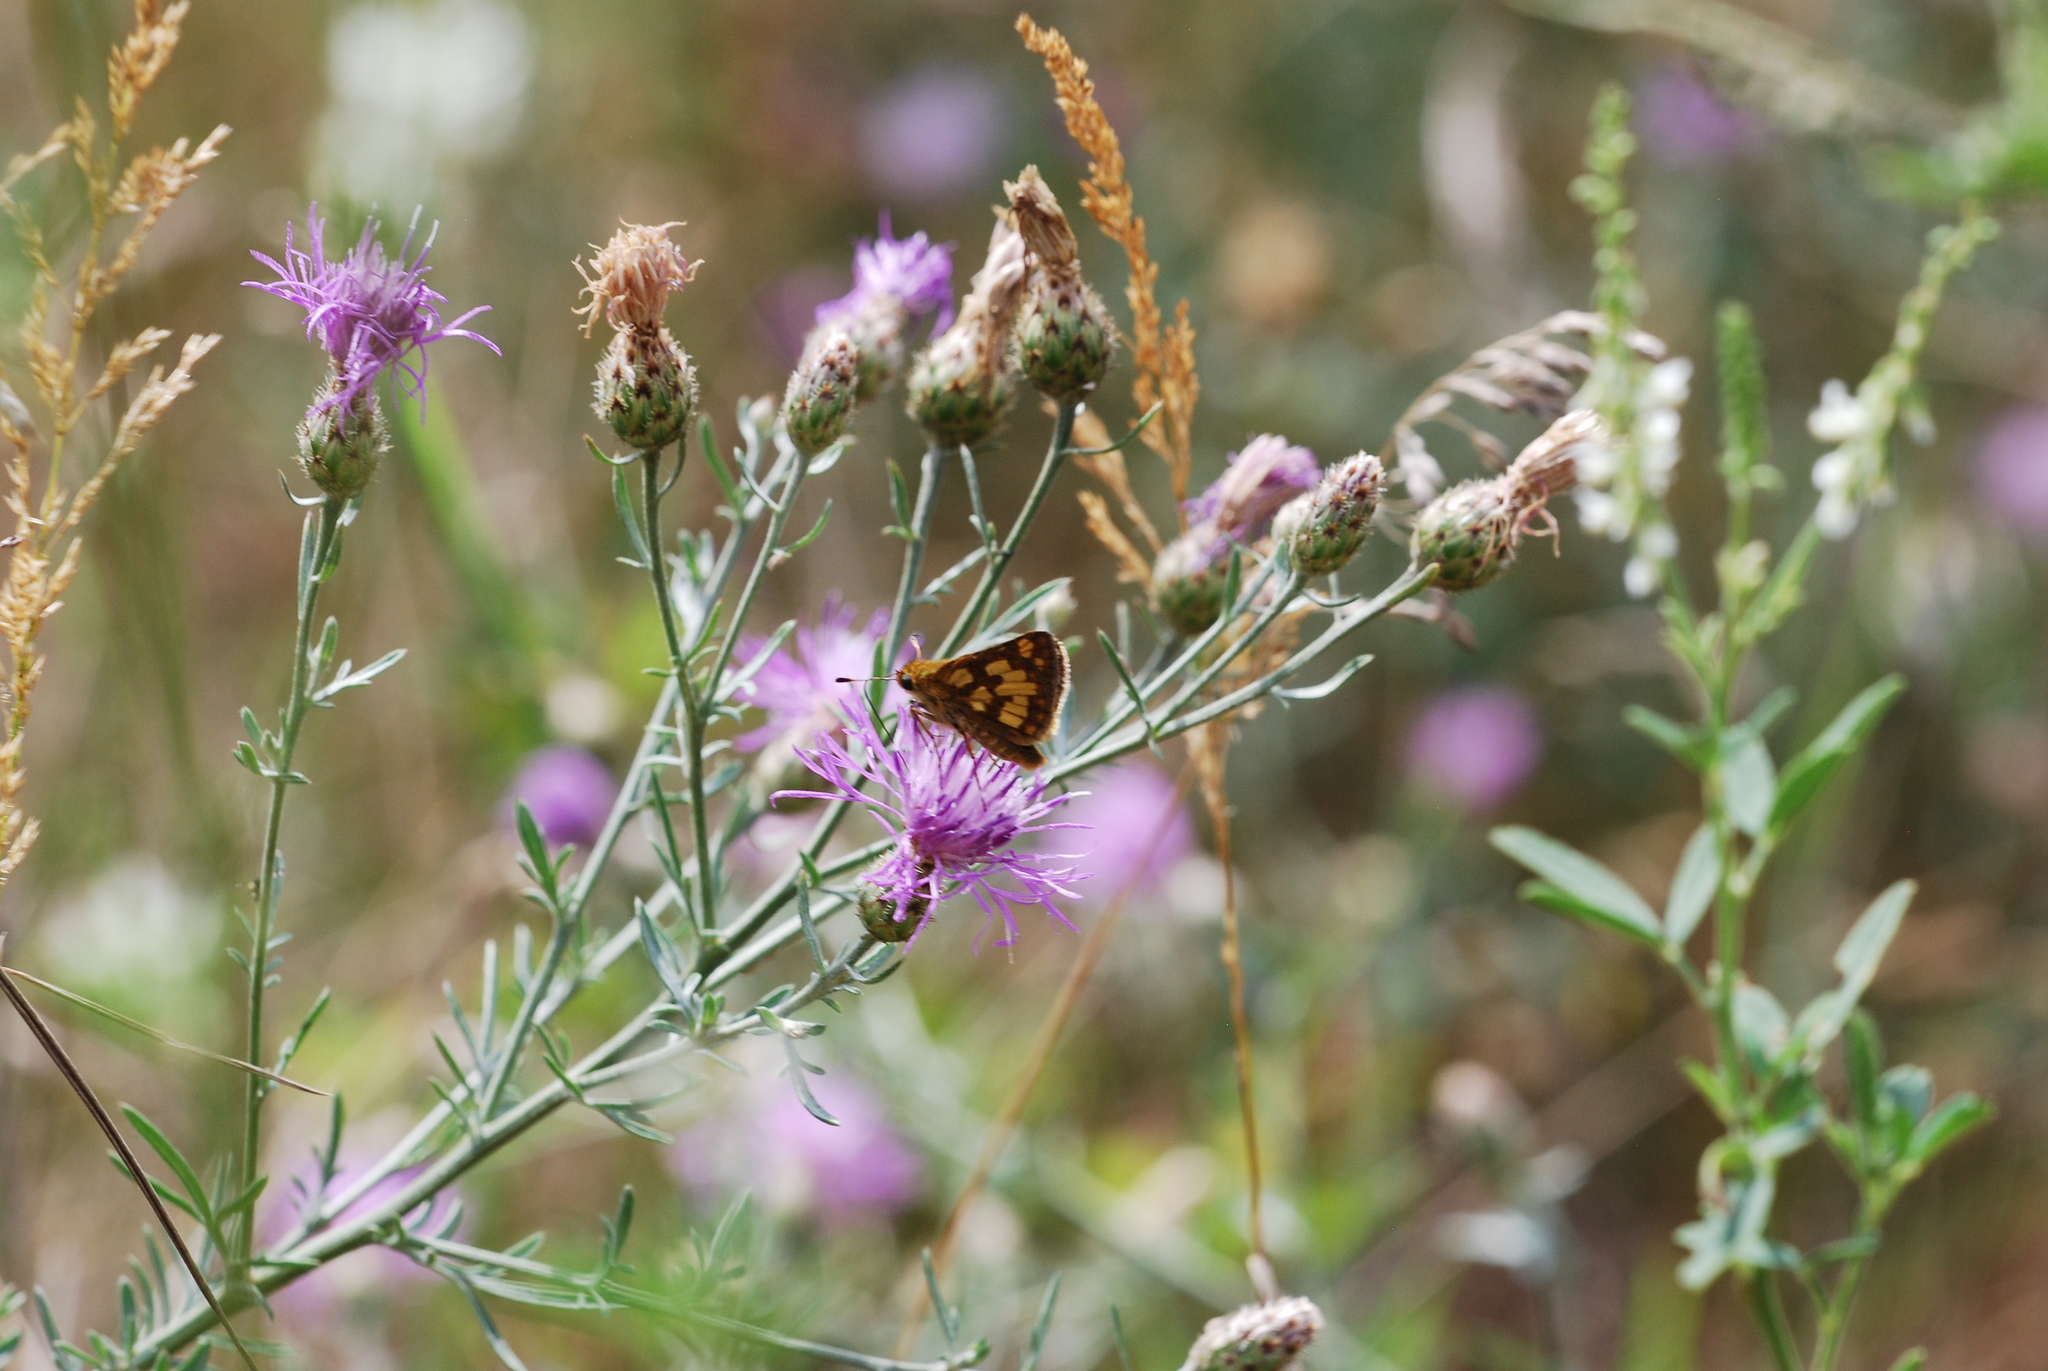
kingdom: Animalia
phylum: Arthropoda
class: Insecta
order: Lepidoptera
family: Hesperiidae
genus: Polites
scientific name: Polites coras
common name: Peck's skipper
